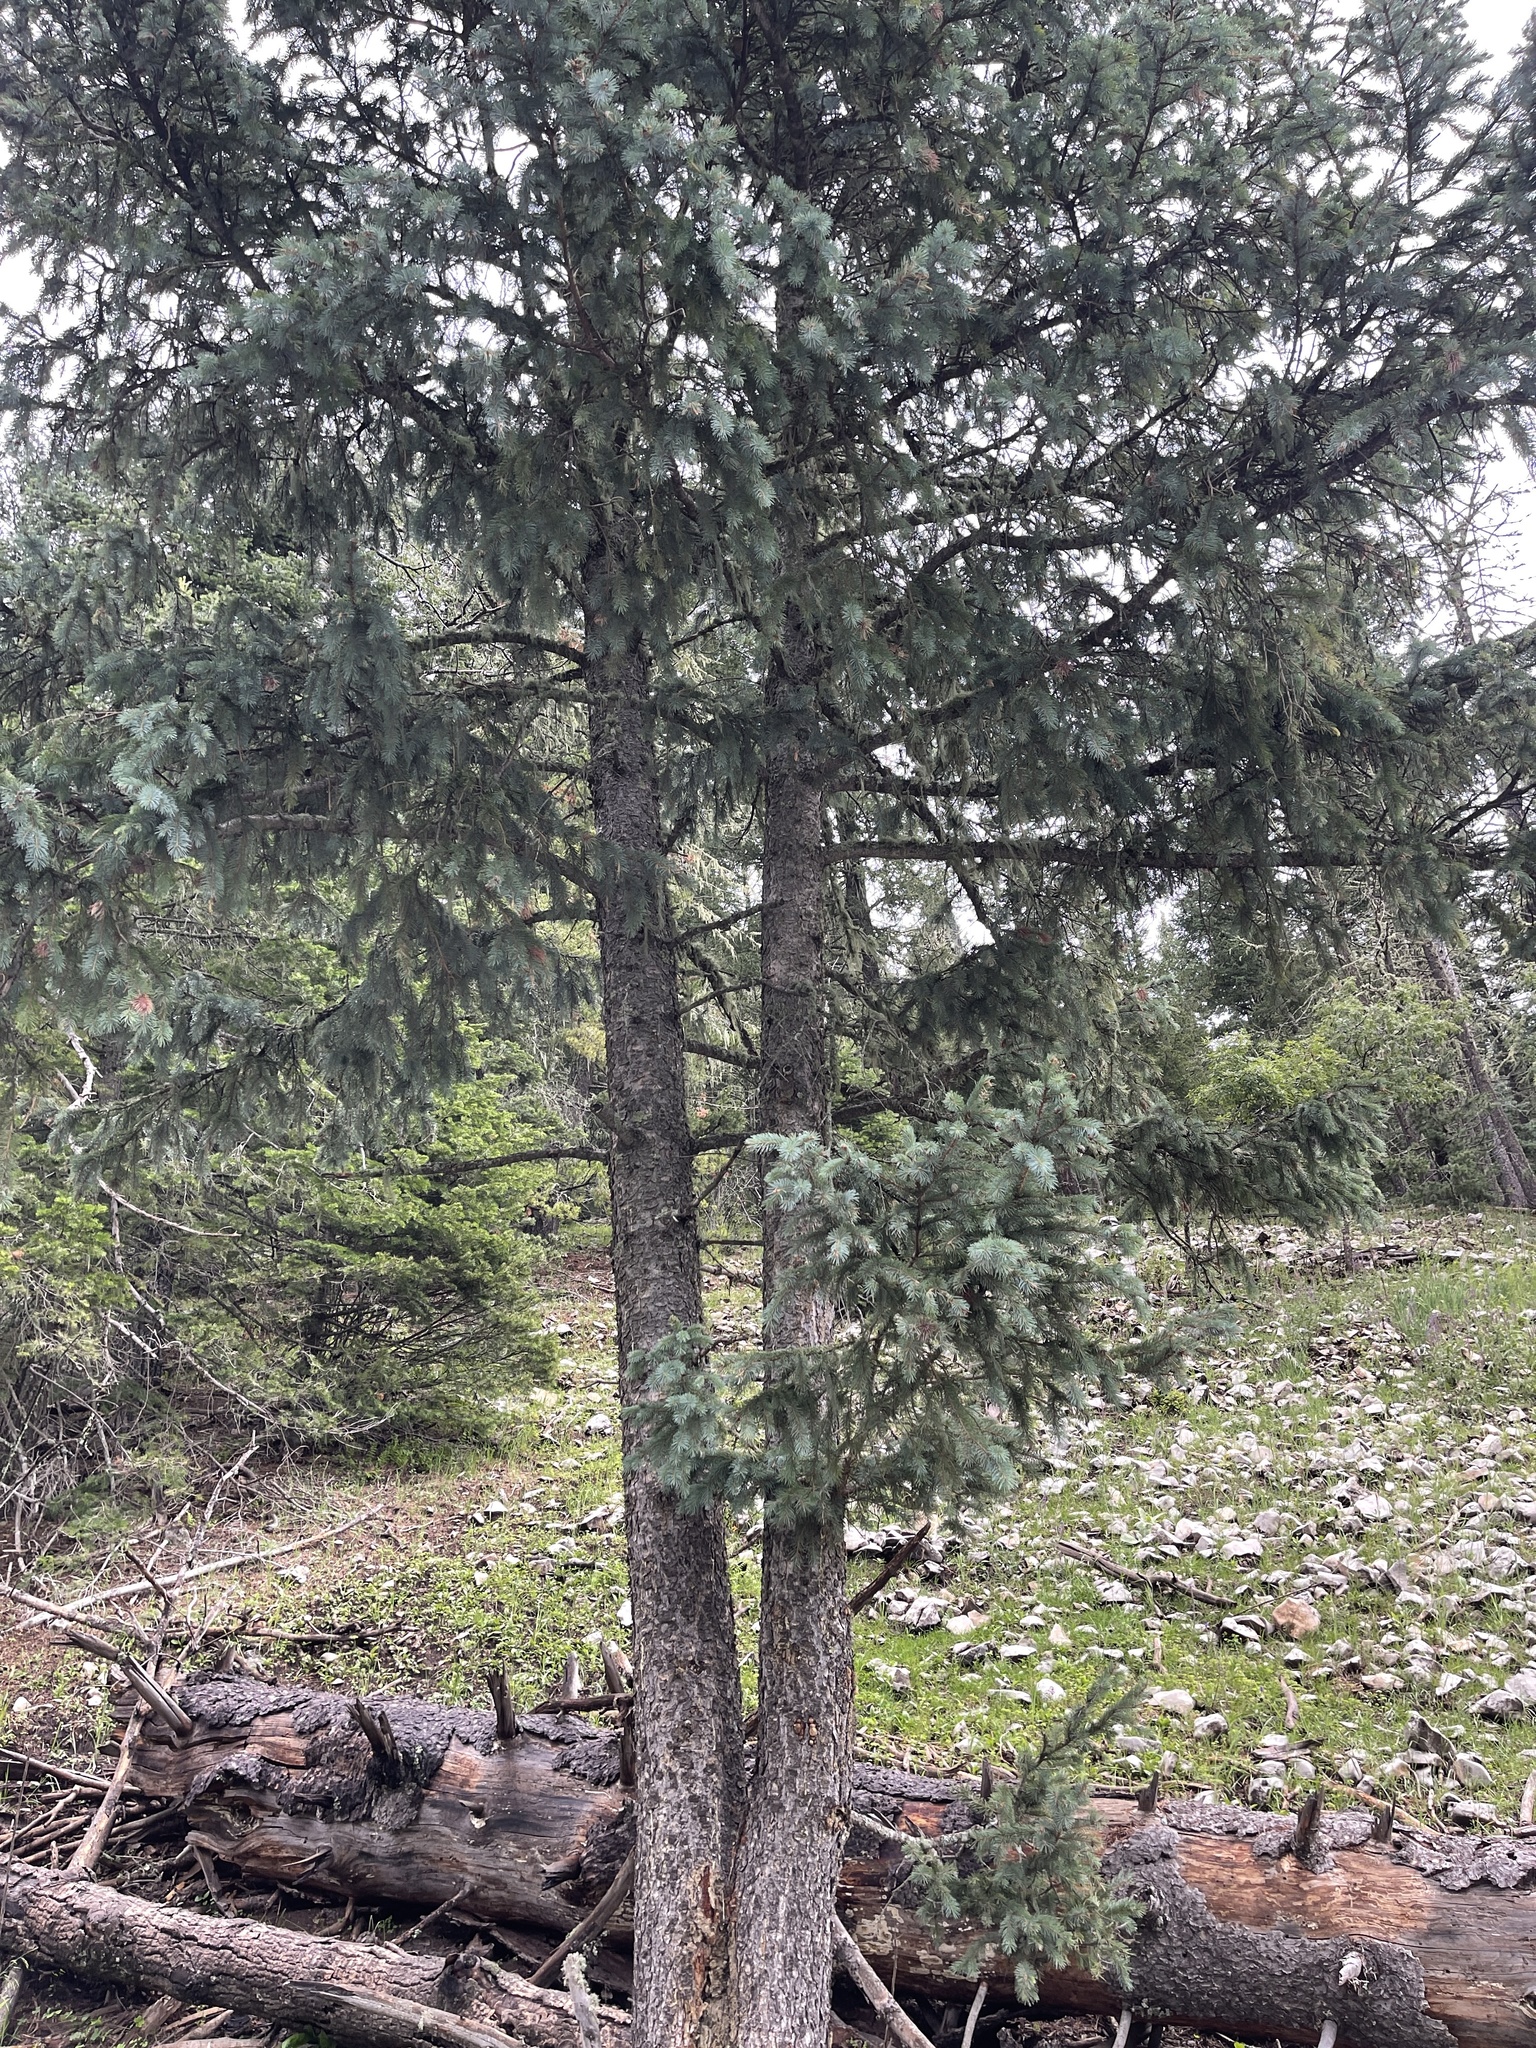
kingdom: Plantae
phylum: Tracheophyta
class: Pinopsida
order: Pinales
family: Pinaceae
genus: Picea
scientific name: Picea engelmannii
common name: Engelmann spruce
